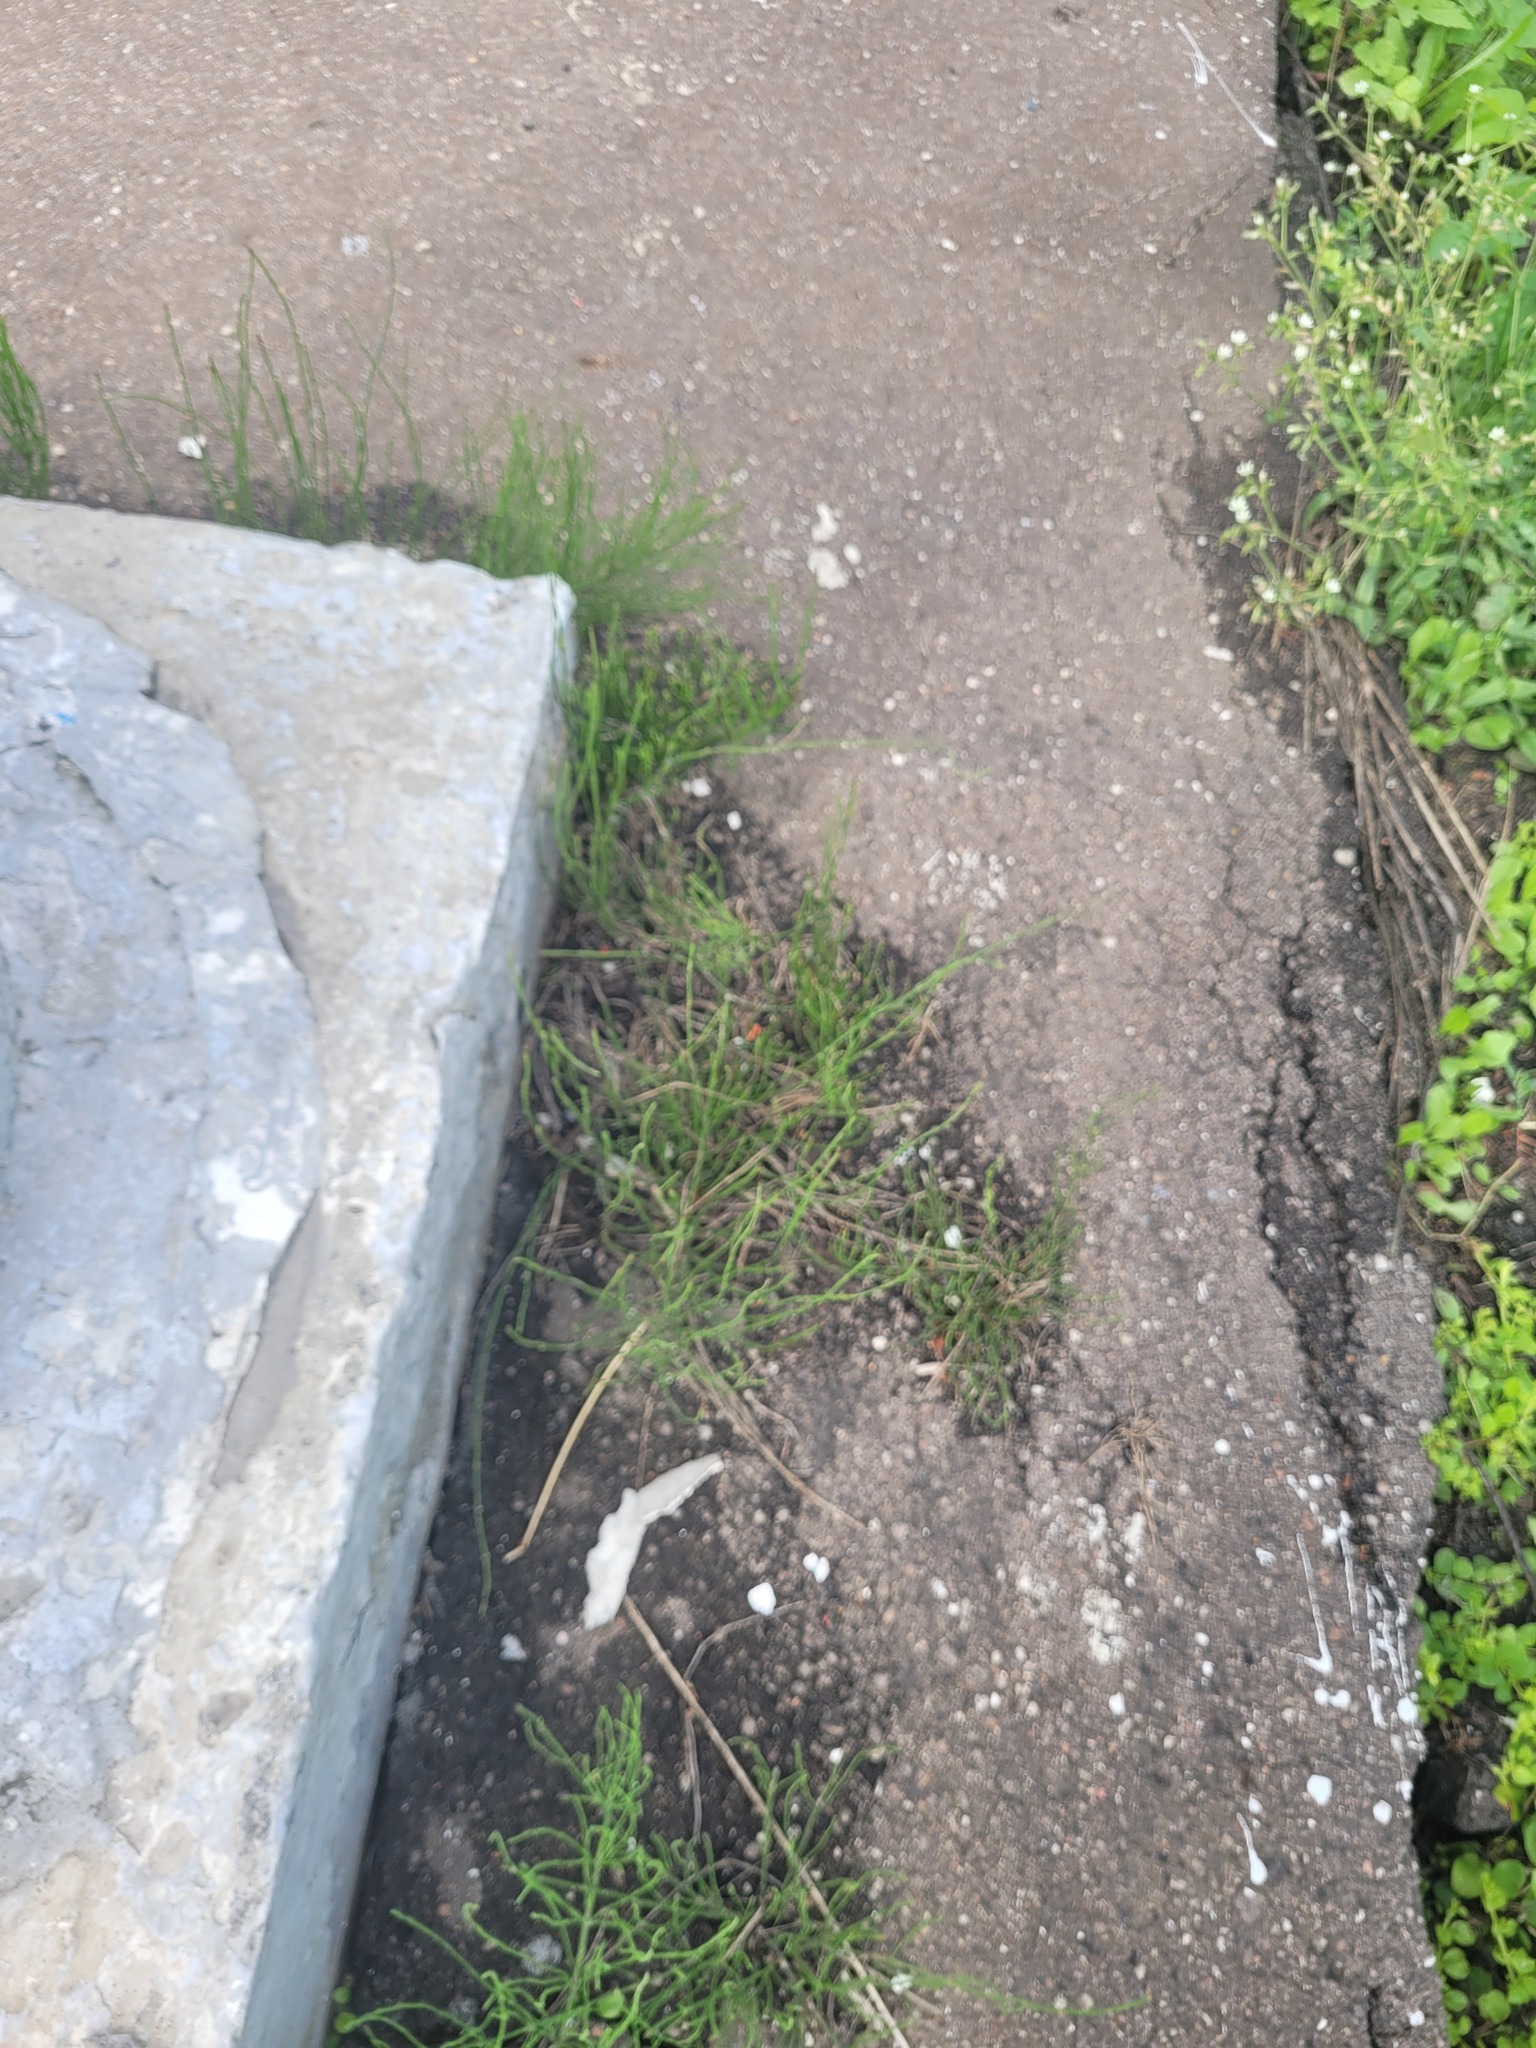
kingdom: Plantae
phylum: Tracheophyta
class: Polypodiopsida
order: Equisetales
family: Equisetaceae
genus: Equisetum
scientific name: Equisetum arvense
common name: Field horsetail
